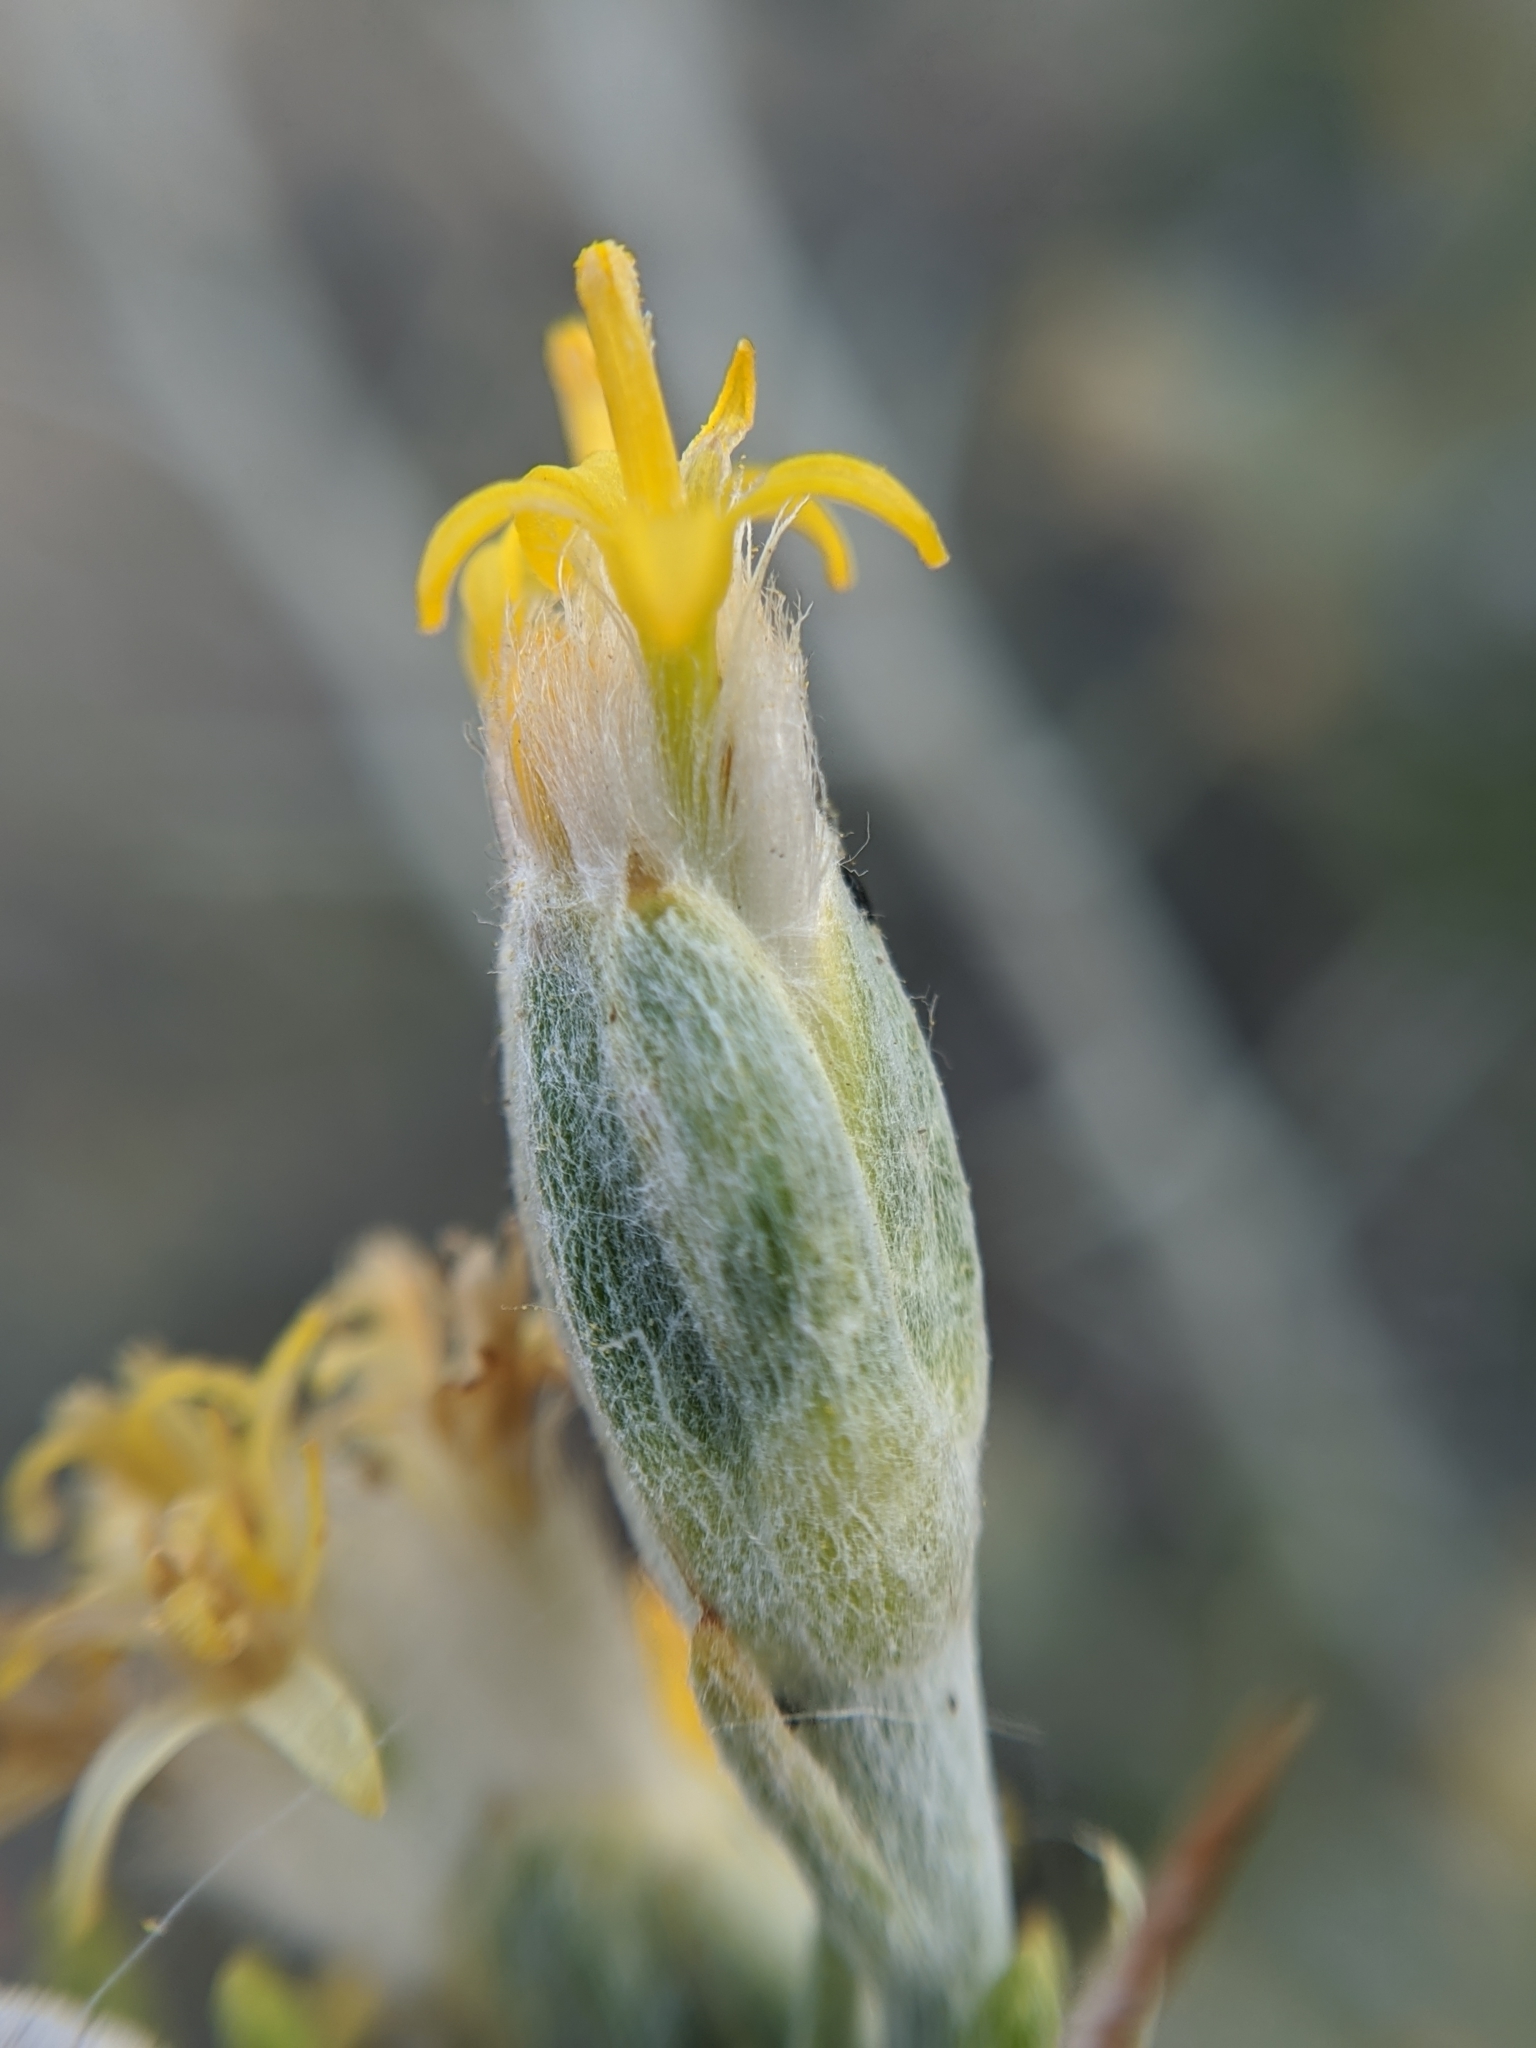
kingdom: Plantae
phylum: Tracheophyta
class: Magnoliopsida
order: Asterales
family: Asteraceae
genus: Tetradymia
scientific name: Tetradymia axillaris
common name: Long-spine horsebrush
